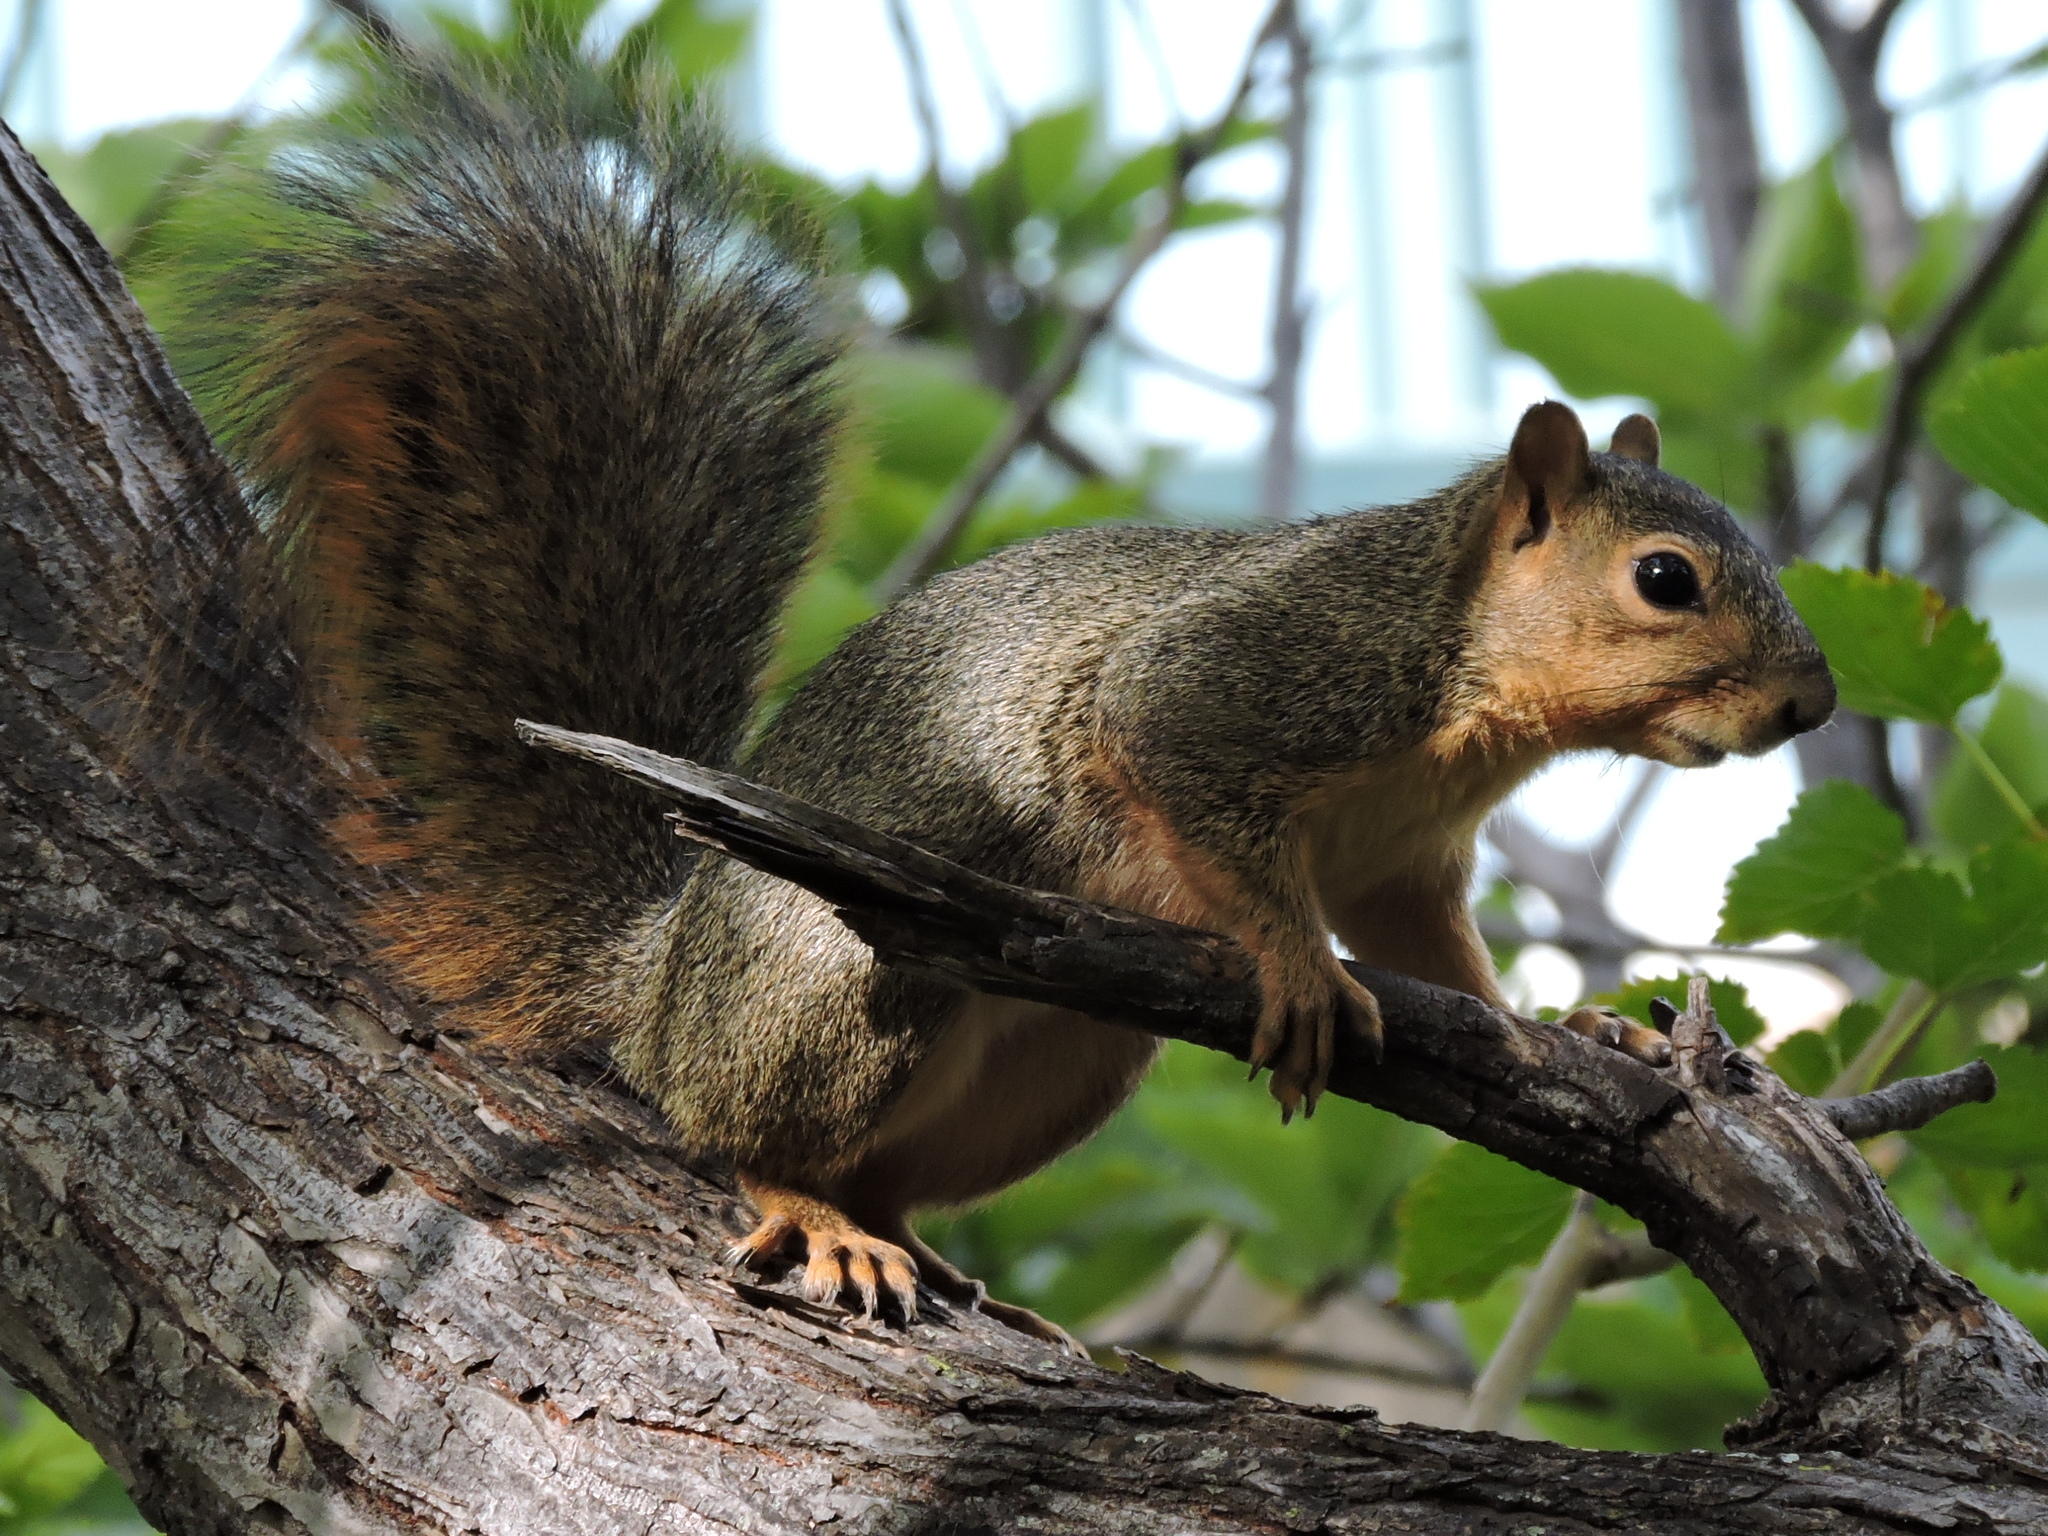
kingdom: Animalia
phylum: Chordata
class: Mammalia
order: Rodentia
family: Sciuridae
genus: Sciurus
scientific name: Sciurus niger
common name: Fox squirrel
